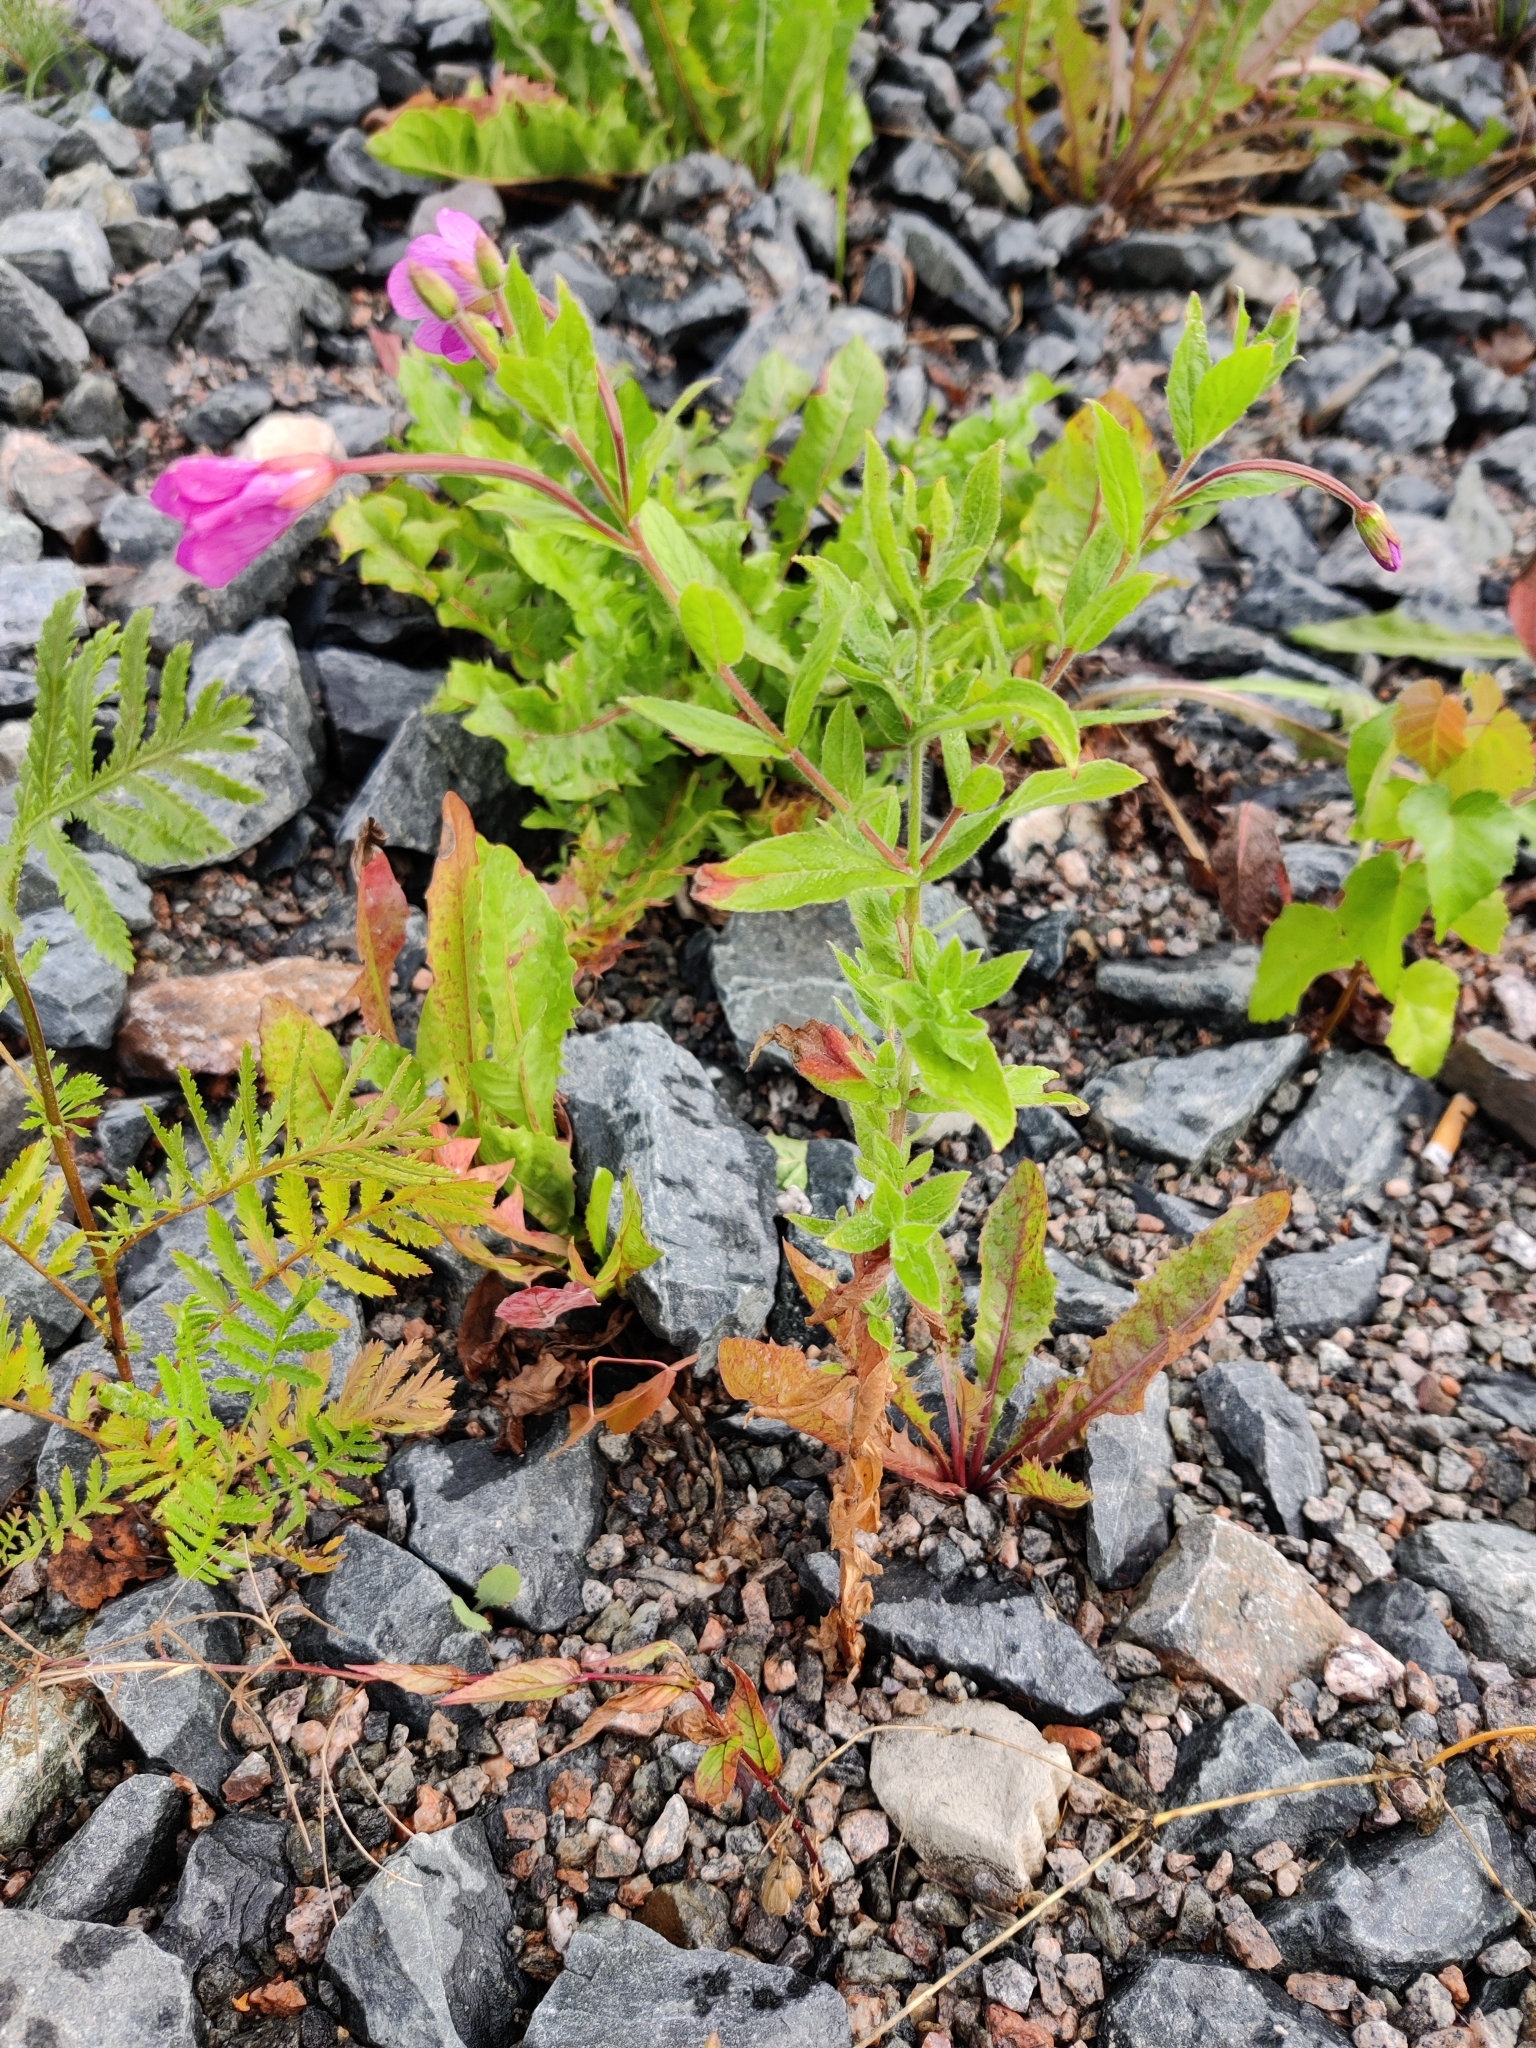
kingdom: Plantae
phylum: Tracheophyta
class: Magnoliopsida
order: Myrtales
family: Onagraceae
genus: Epilobium
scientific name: Epilobium hirsutum
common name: Great willowherb
